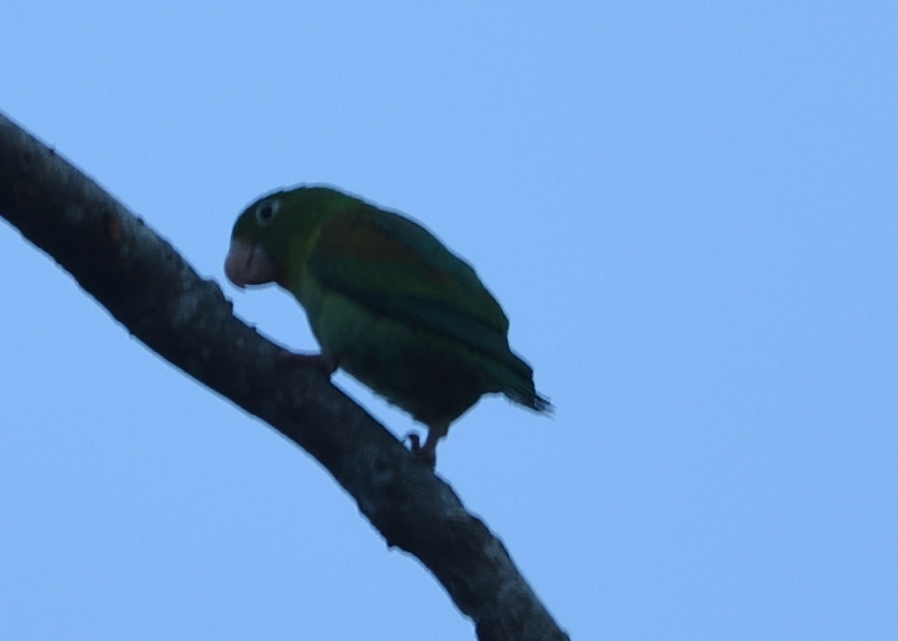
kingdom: Animalia
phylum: Chordata
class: Aves
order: Psittaciformes
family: Psittacidae
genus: Brotogeris
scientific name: Brotogeris jugularis
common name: Orange-chinned parakeet
